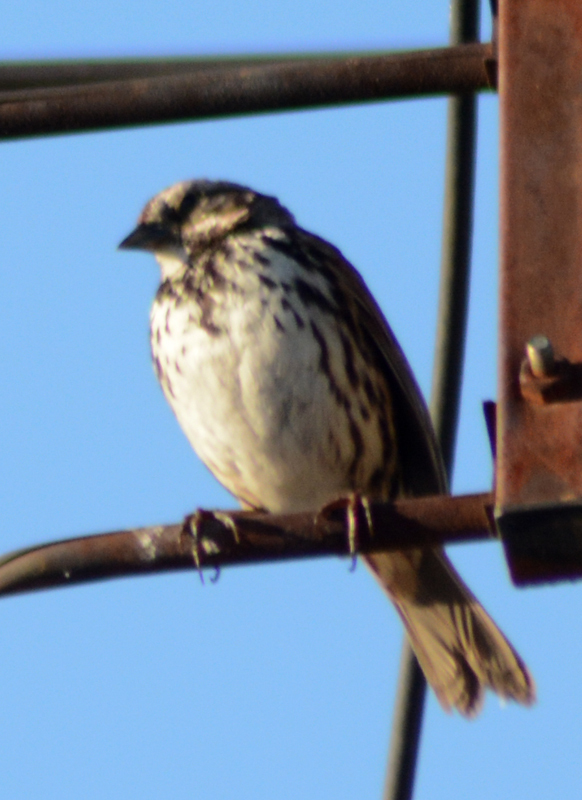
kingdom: Animalia
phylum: Chordata
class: Aves
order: Passeriformes
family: Passerellidae
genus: Melospiza
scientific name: Melospiza melodia
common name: Song sparrow
